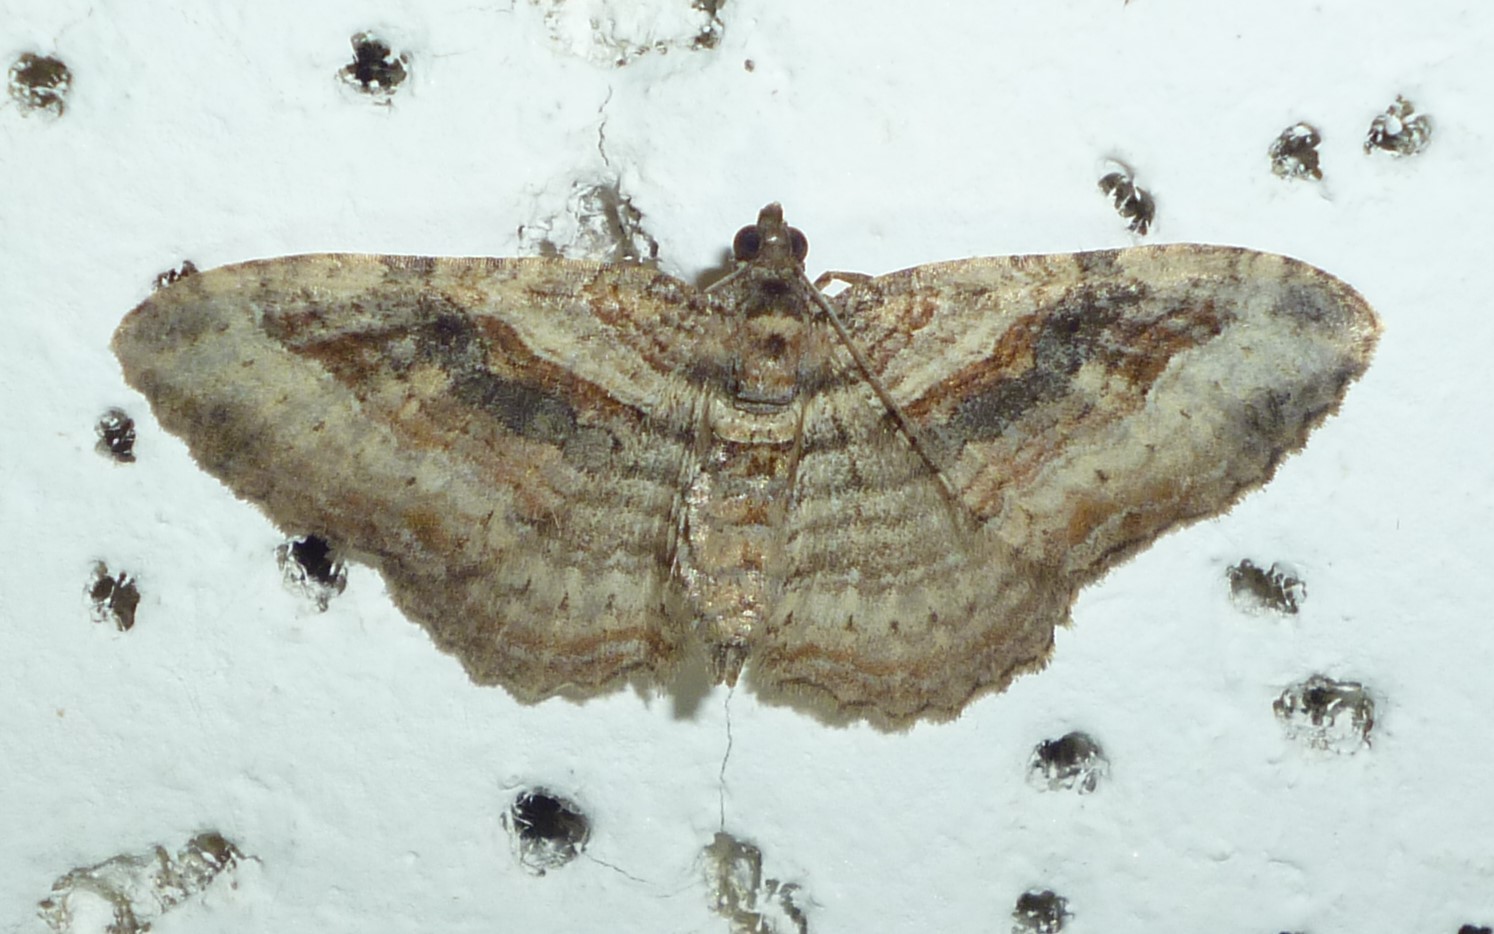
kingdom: Animalia
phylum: Arthropoda
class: Insecta
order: Lepidoptera
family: Geometridae
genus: Costaconvexa
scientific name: Costaconvexa centrostrigaria
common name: Bent-line carpet
